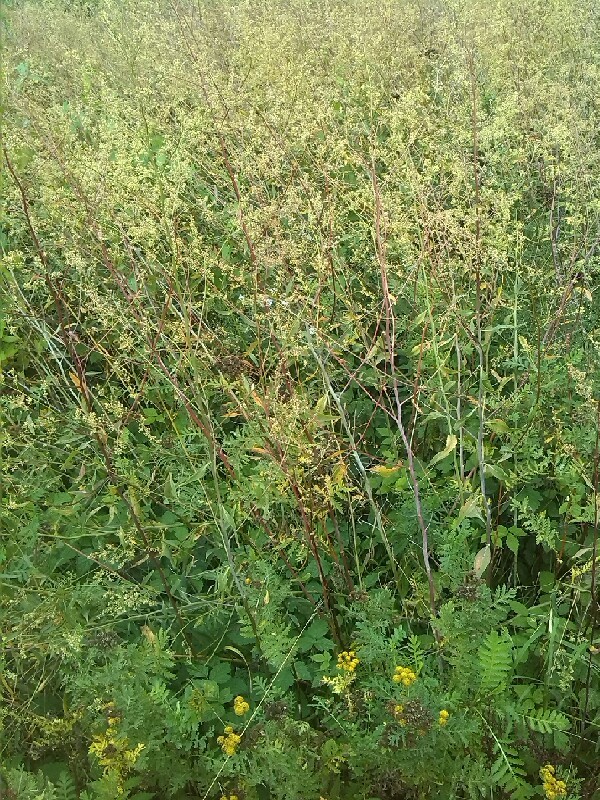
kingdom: Plantae
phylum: Tracheophyta
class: Magnoliopsida
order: Brassicales
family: Brassicaceae
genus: Lepidium
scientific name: Lepidium latifolium
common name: Dittander
